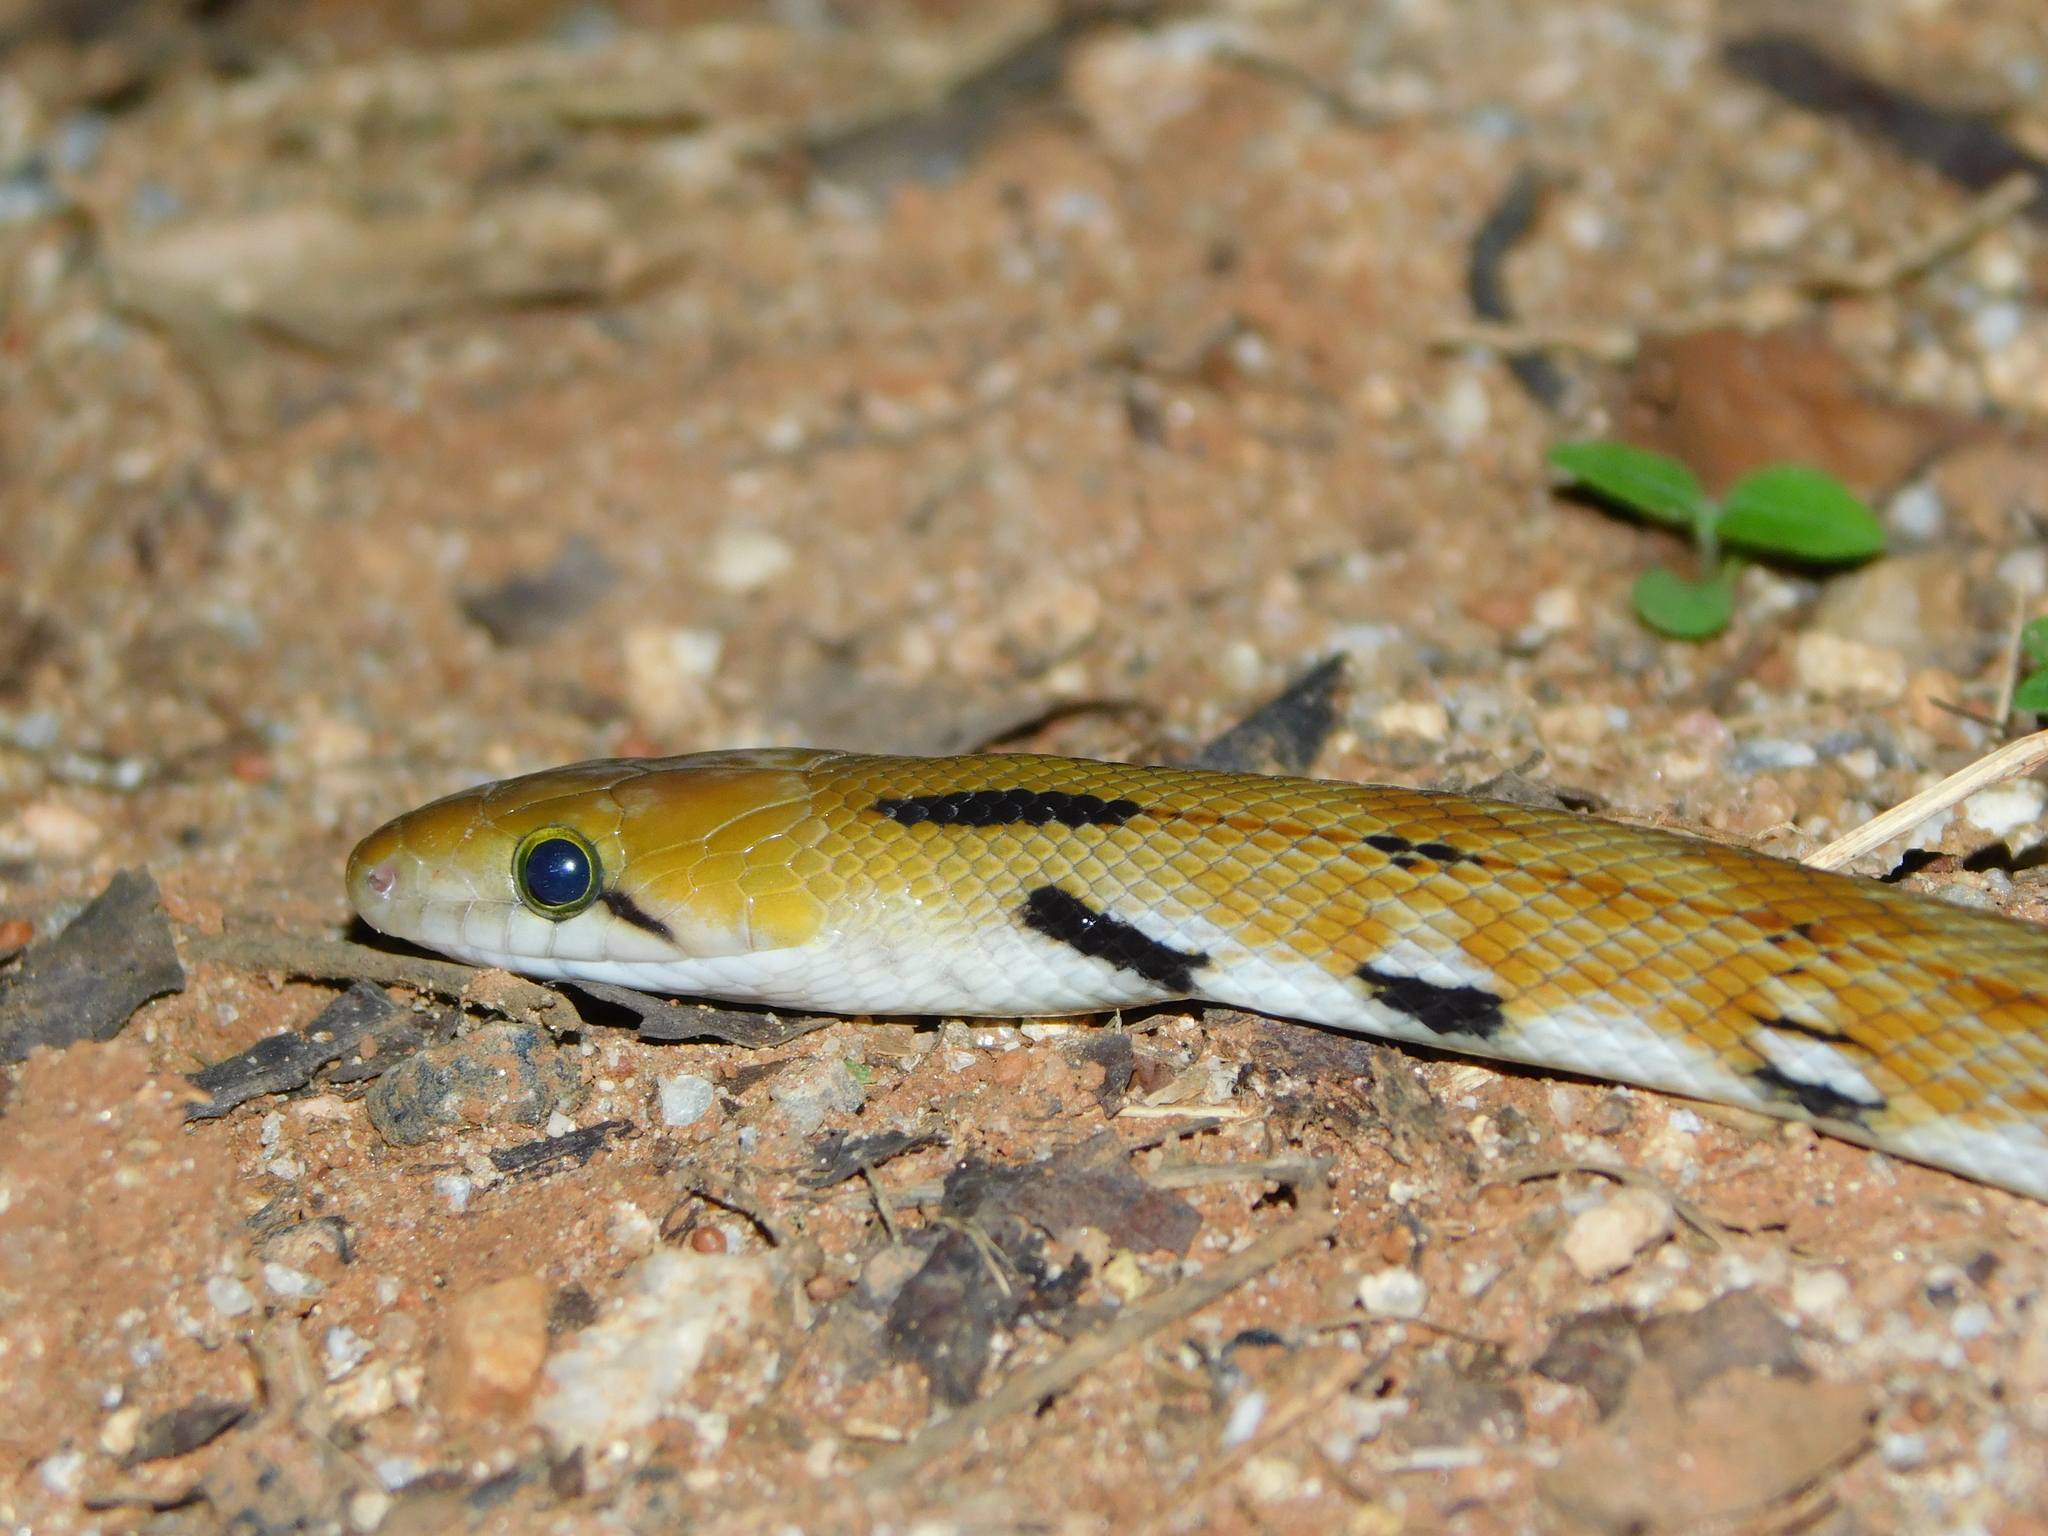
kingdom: Animalia
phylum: Chordata
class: Squamata
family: Colubridae
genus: Coelognathus
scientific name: Coelognathus helena
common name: Trinket snake
